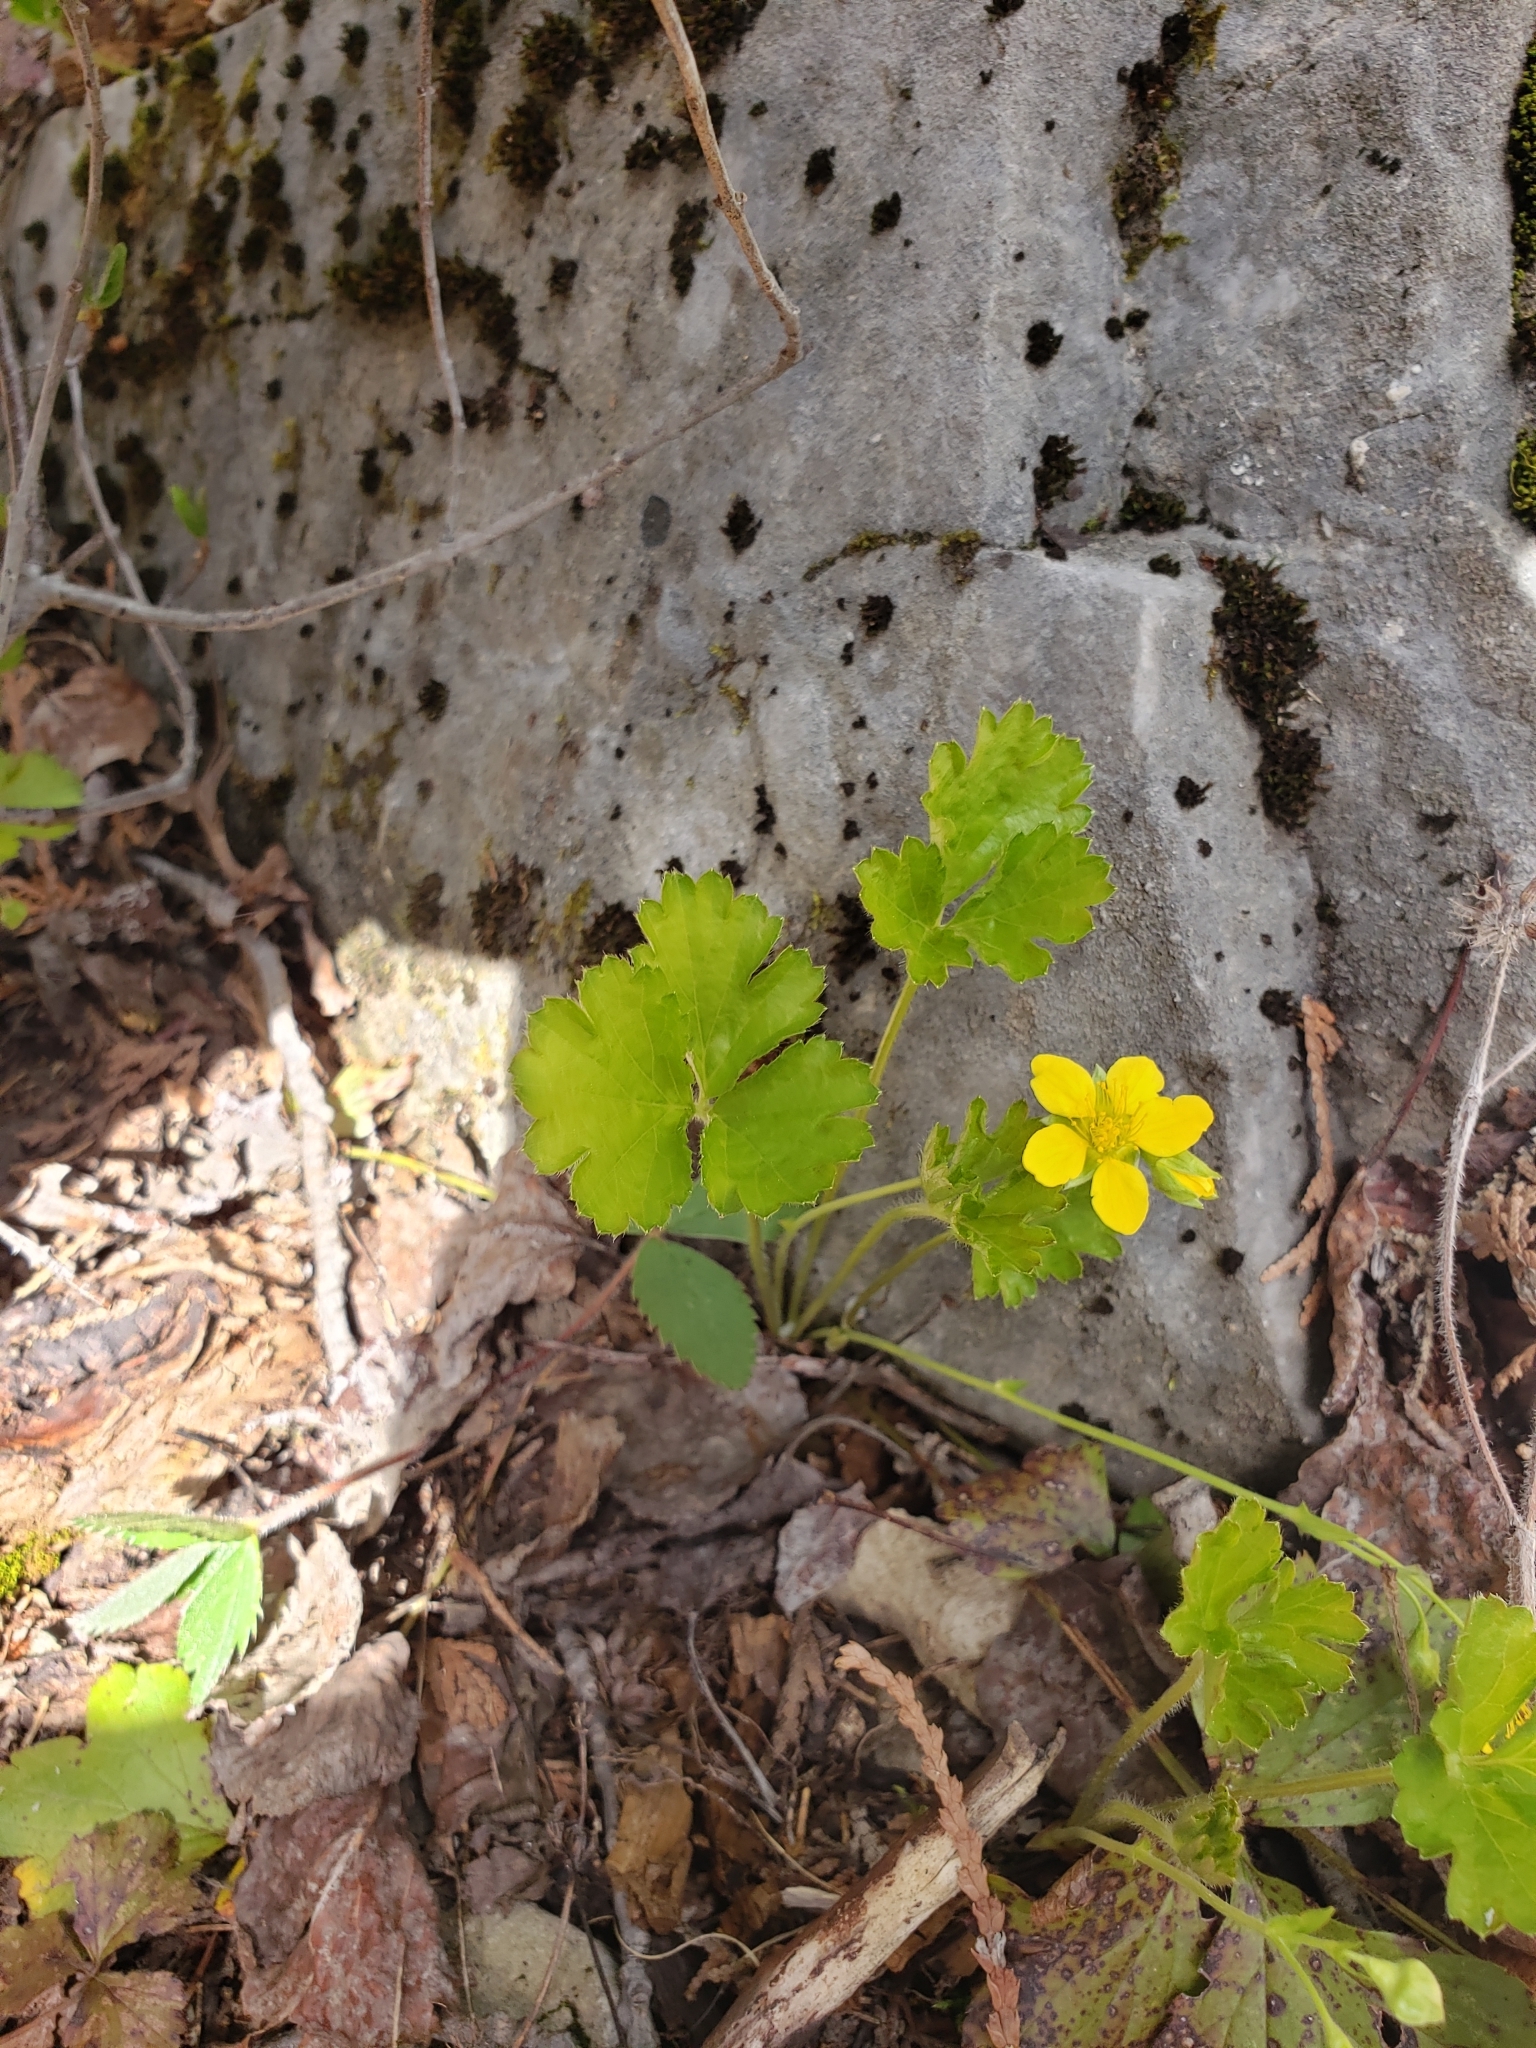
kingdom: Plantae
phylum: Tracheophyta
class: Magnoliopsida
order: Rosales
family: Rosaceae
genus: Geum
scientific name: Geum fragarioides
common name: Appalachian barren strawberry
